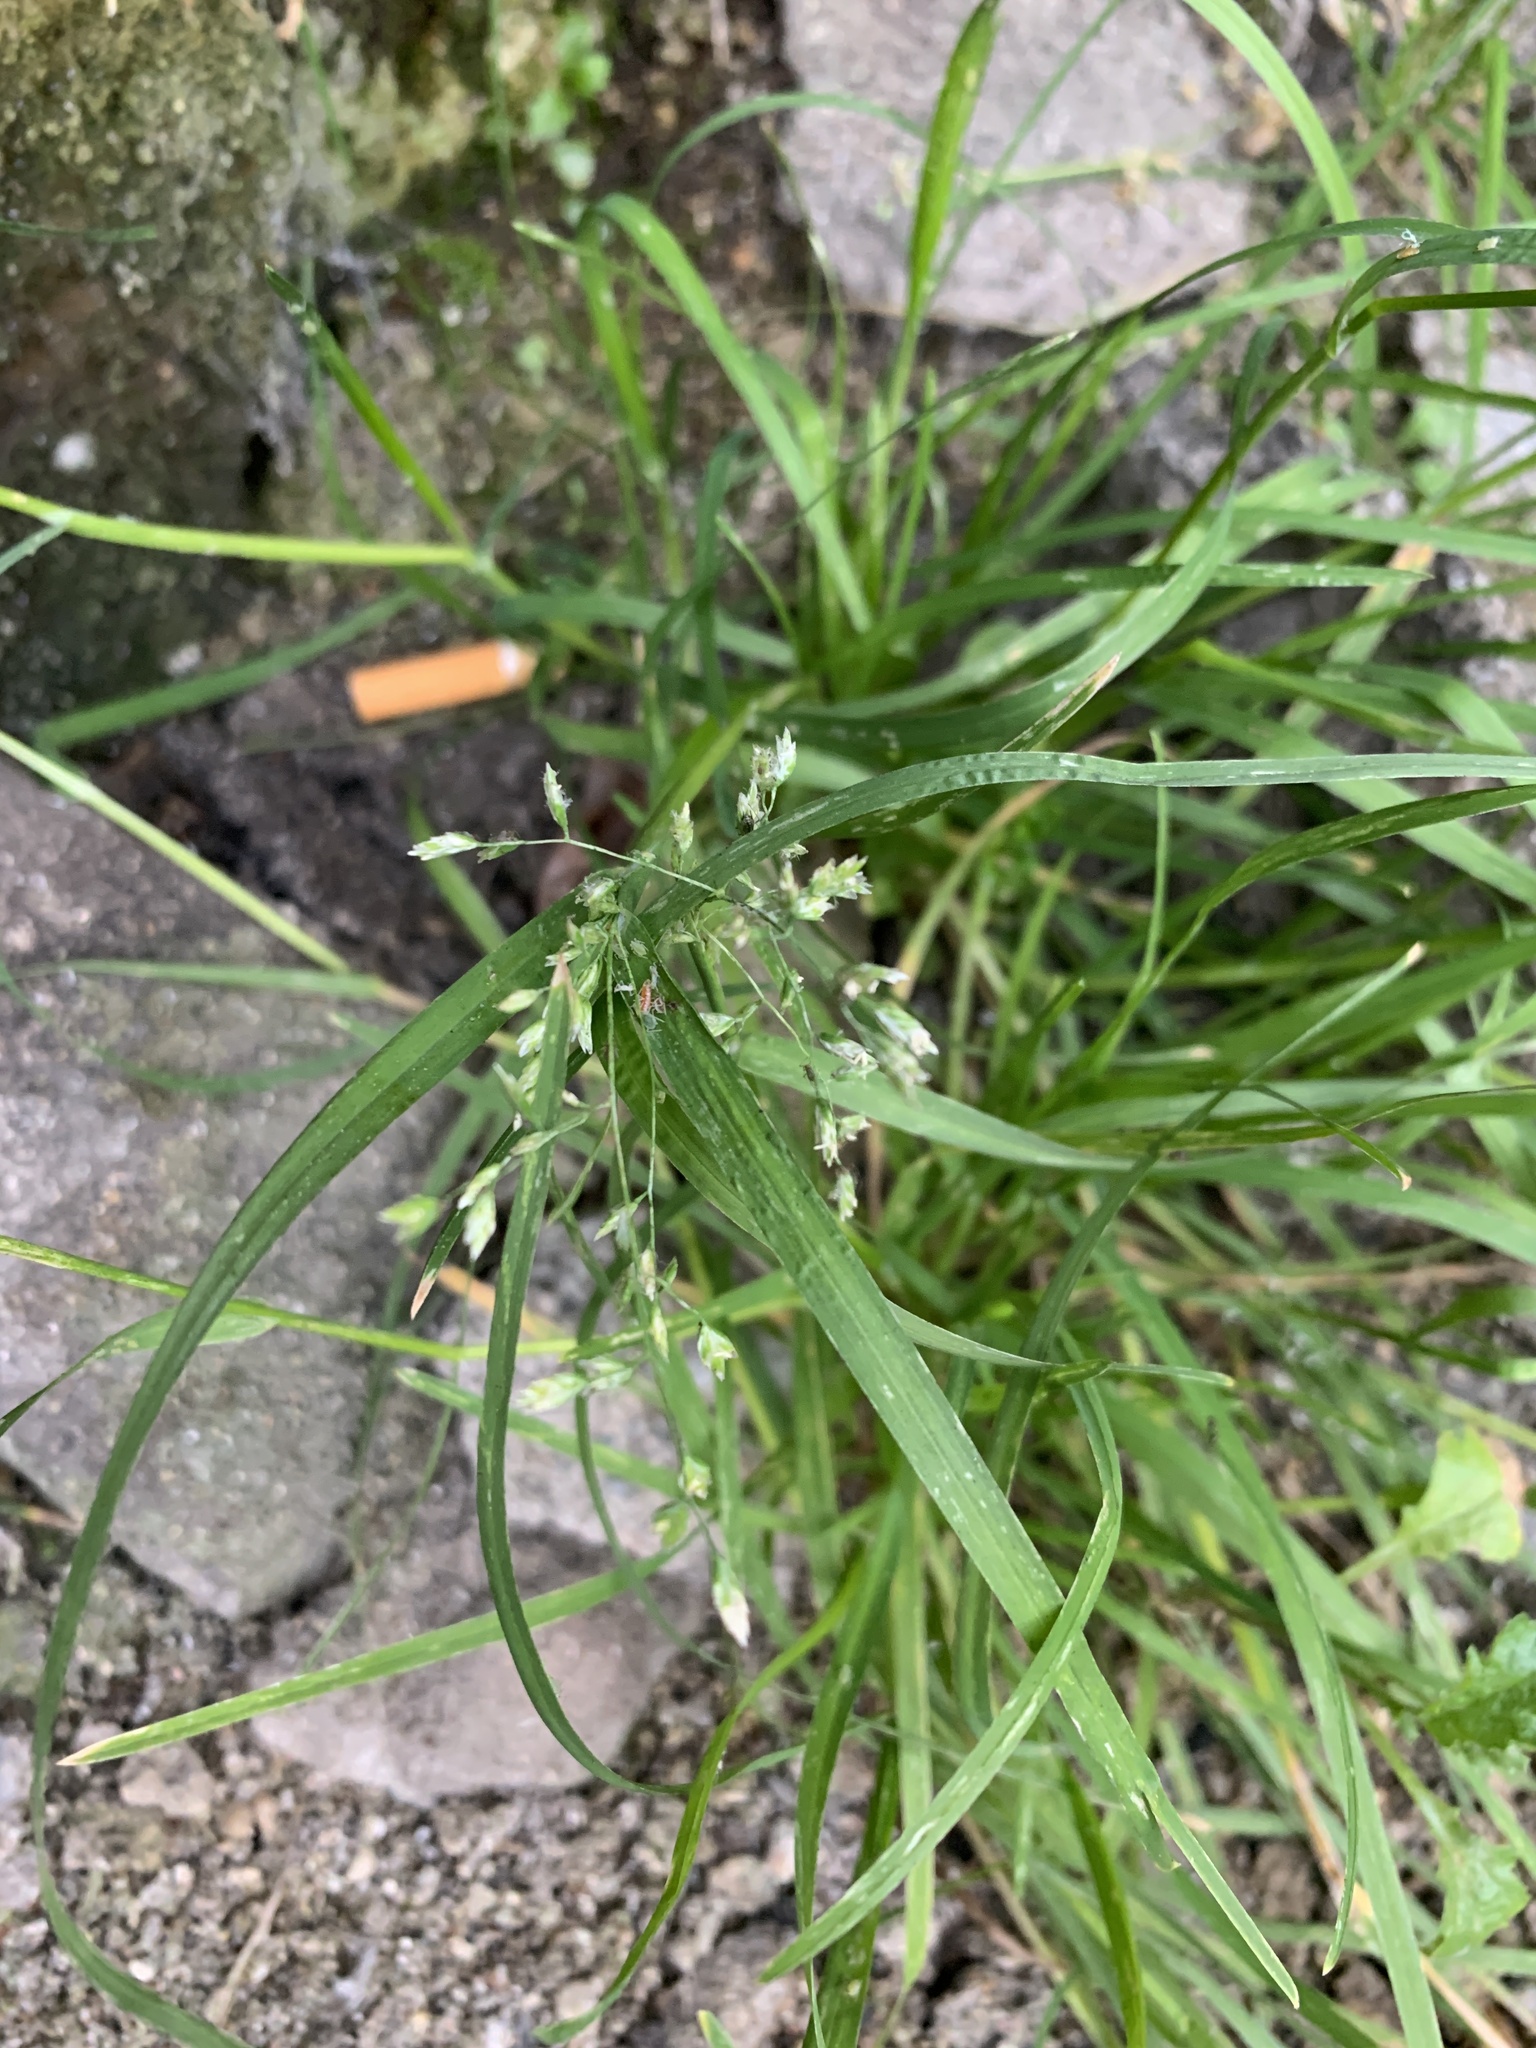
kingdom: Plantae
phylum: Tracheophyta
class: Liliopsida
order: Poales
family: Poaceae
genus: Poa
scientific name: Poa annua
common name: Annual bluegrass
